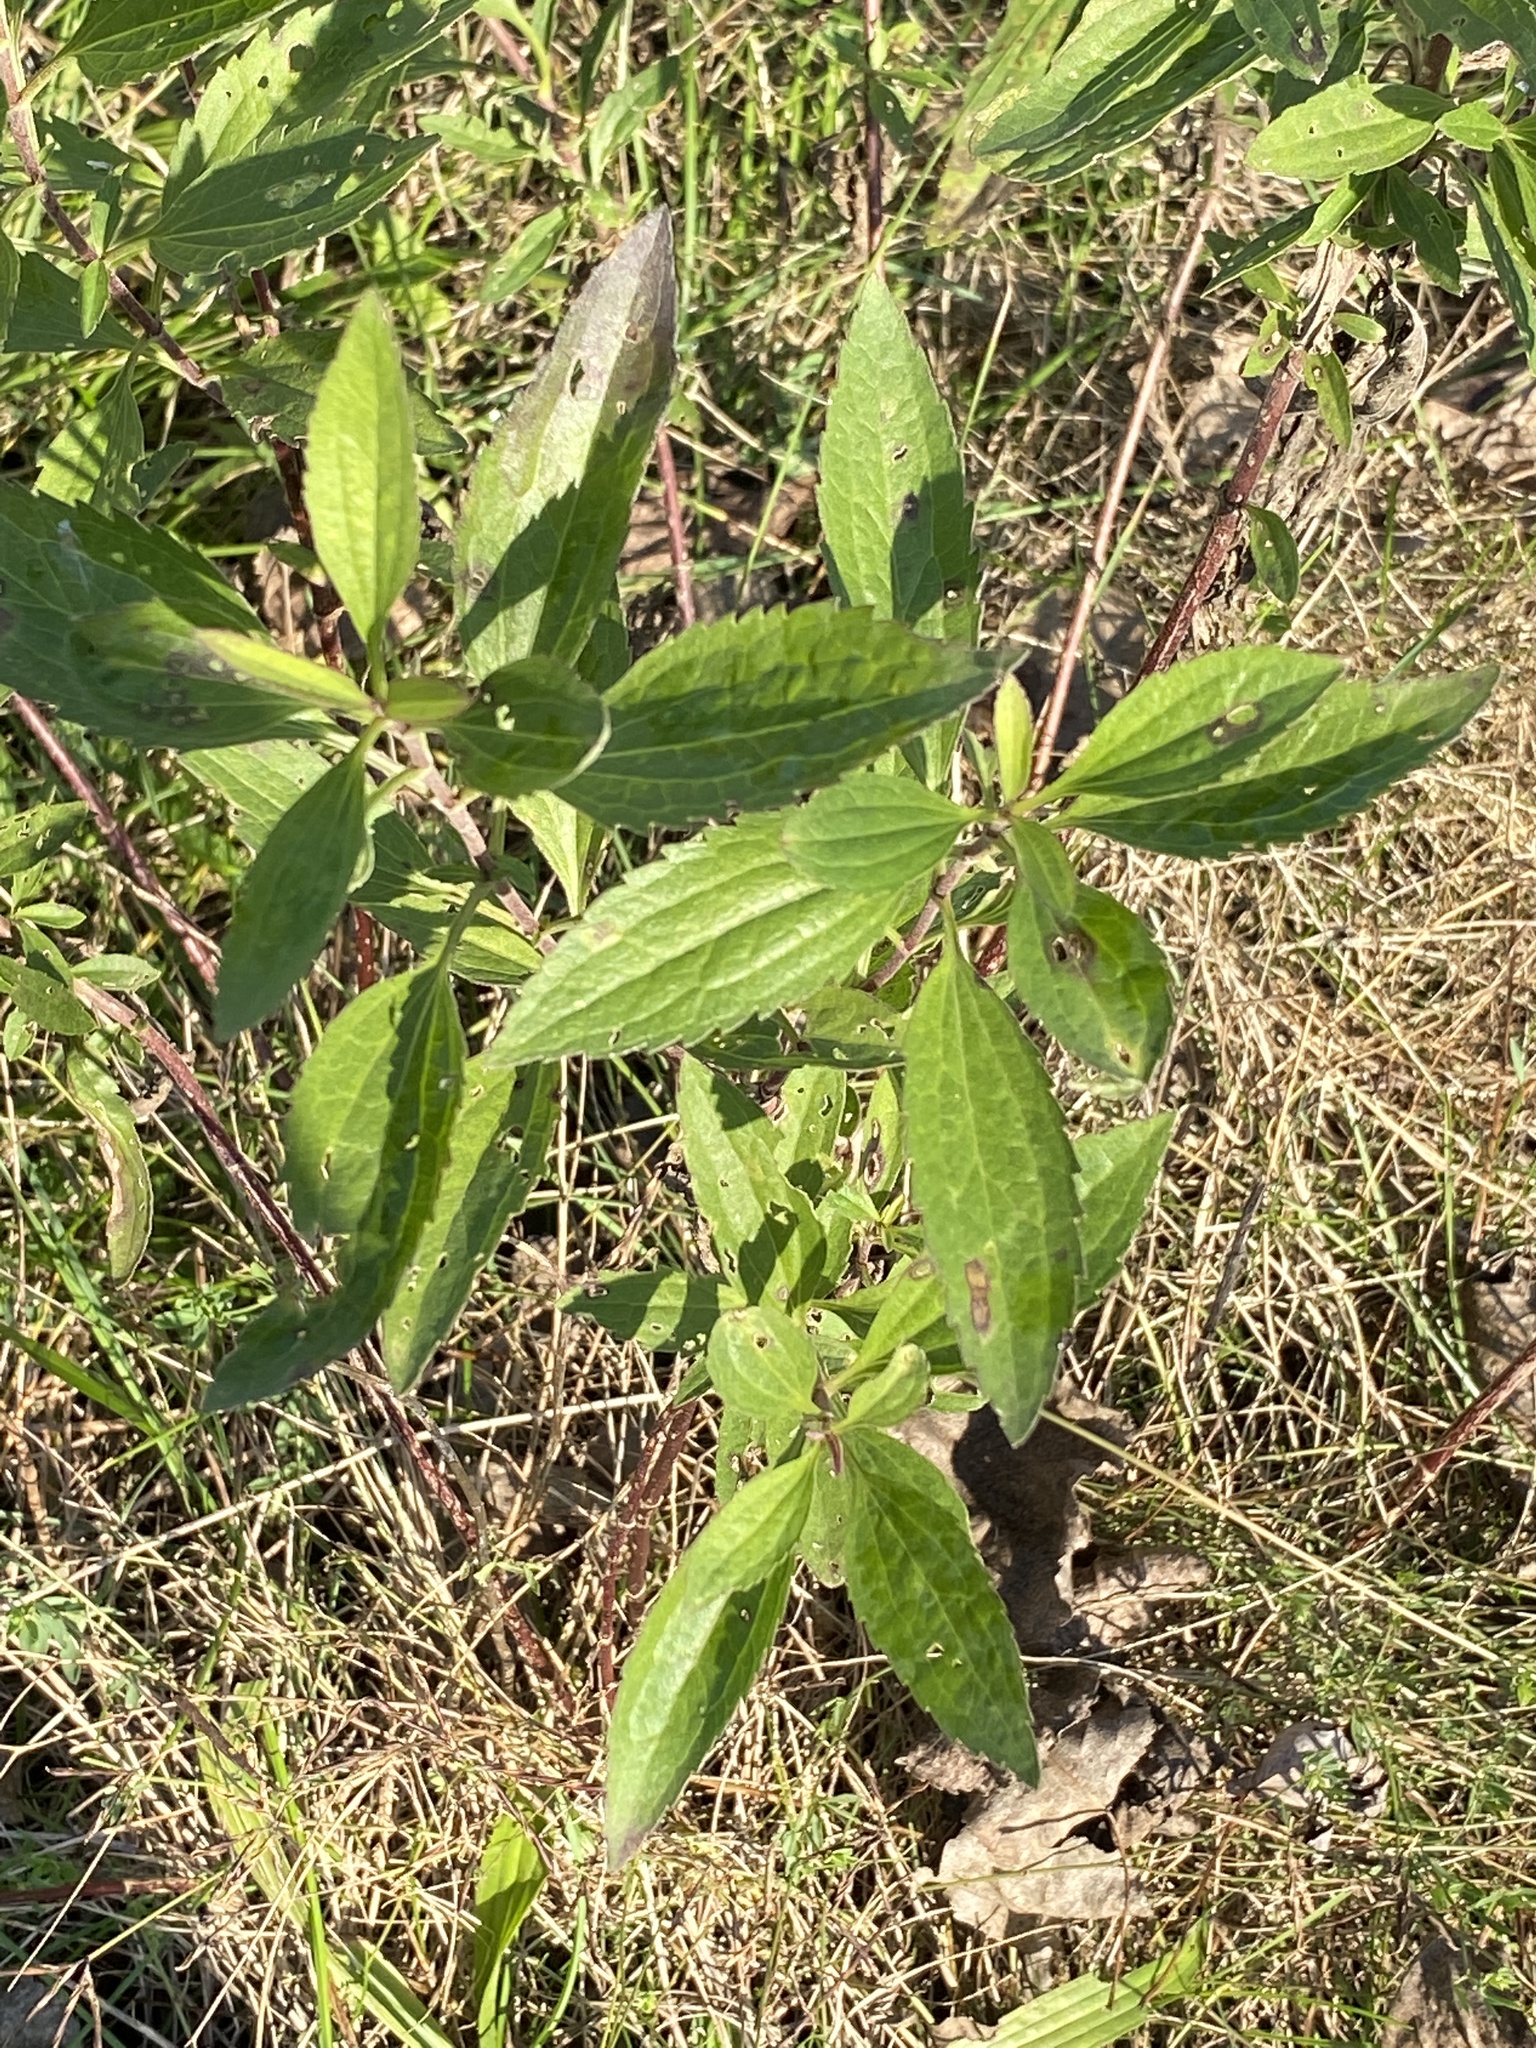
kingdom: Plantae
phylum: Tracheophyta
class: Magnoliopsida
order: Asterales
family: Asteraceae
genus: Eupatorium
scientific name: Eupatorium serotinum
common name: Late boneset
